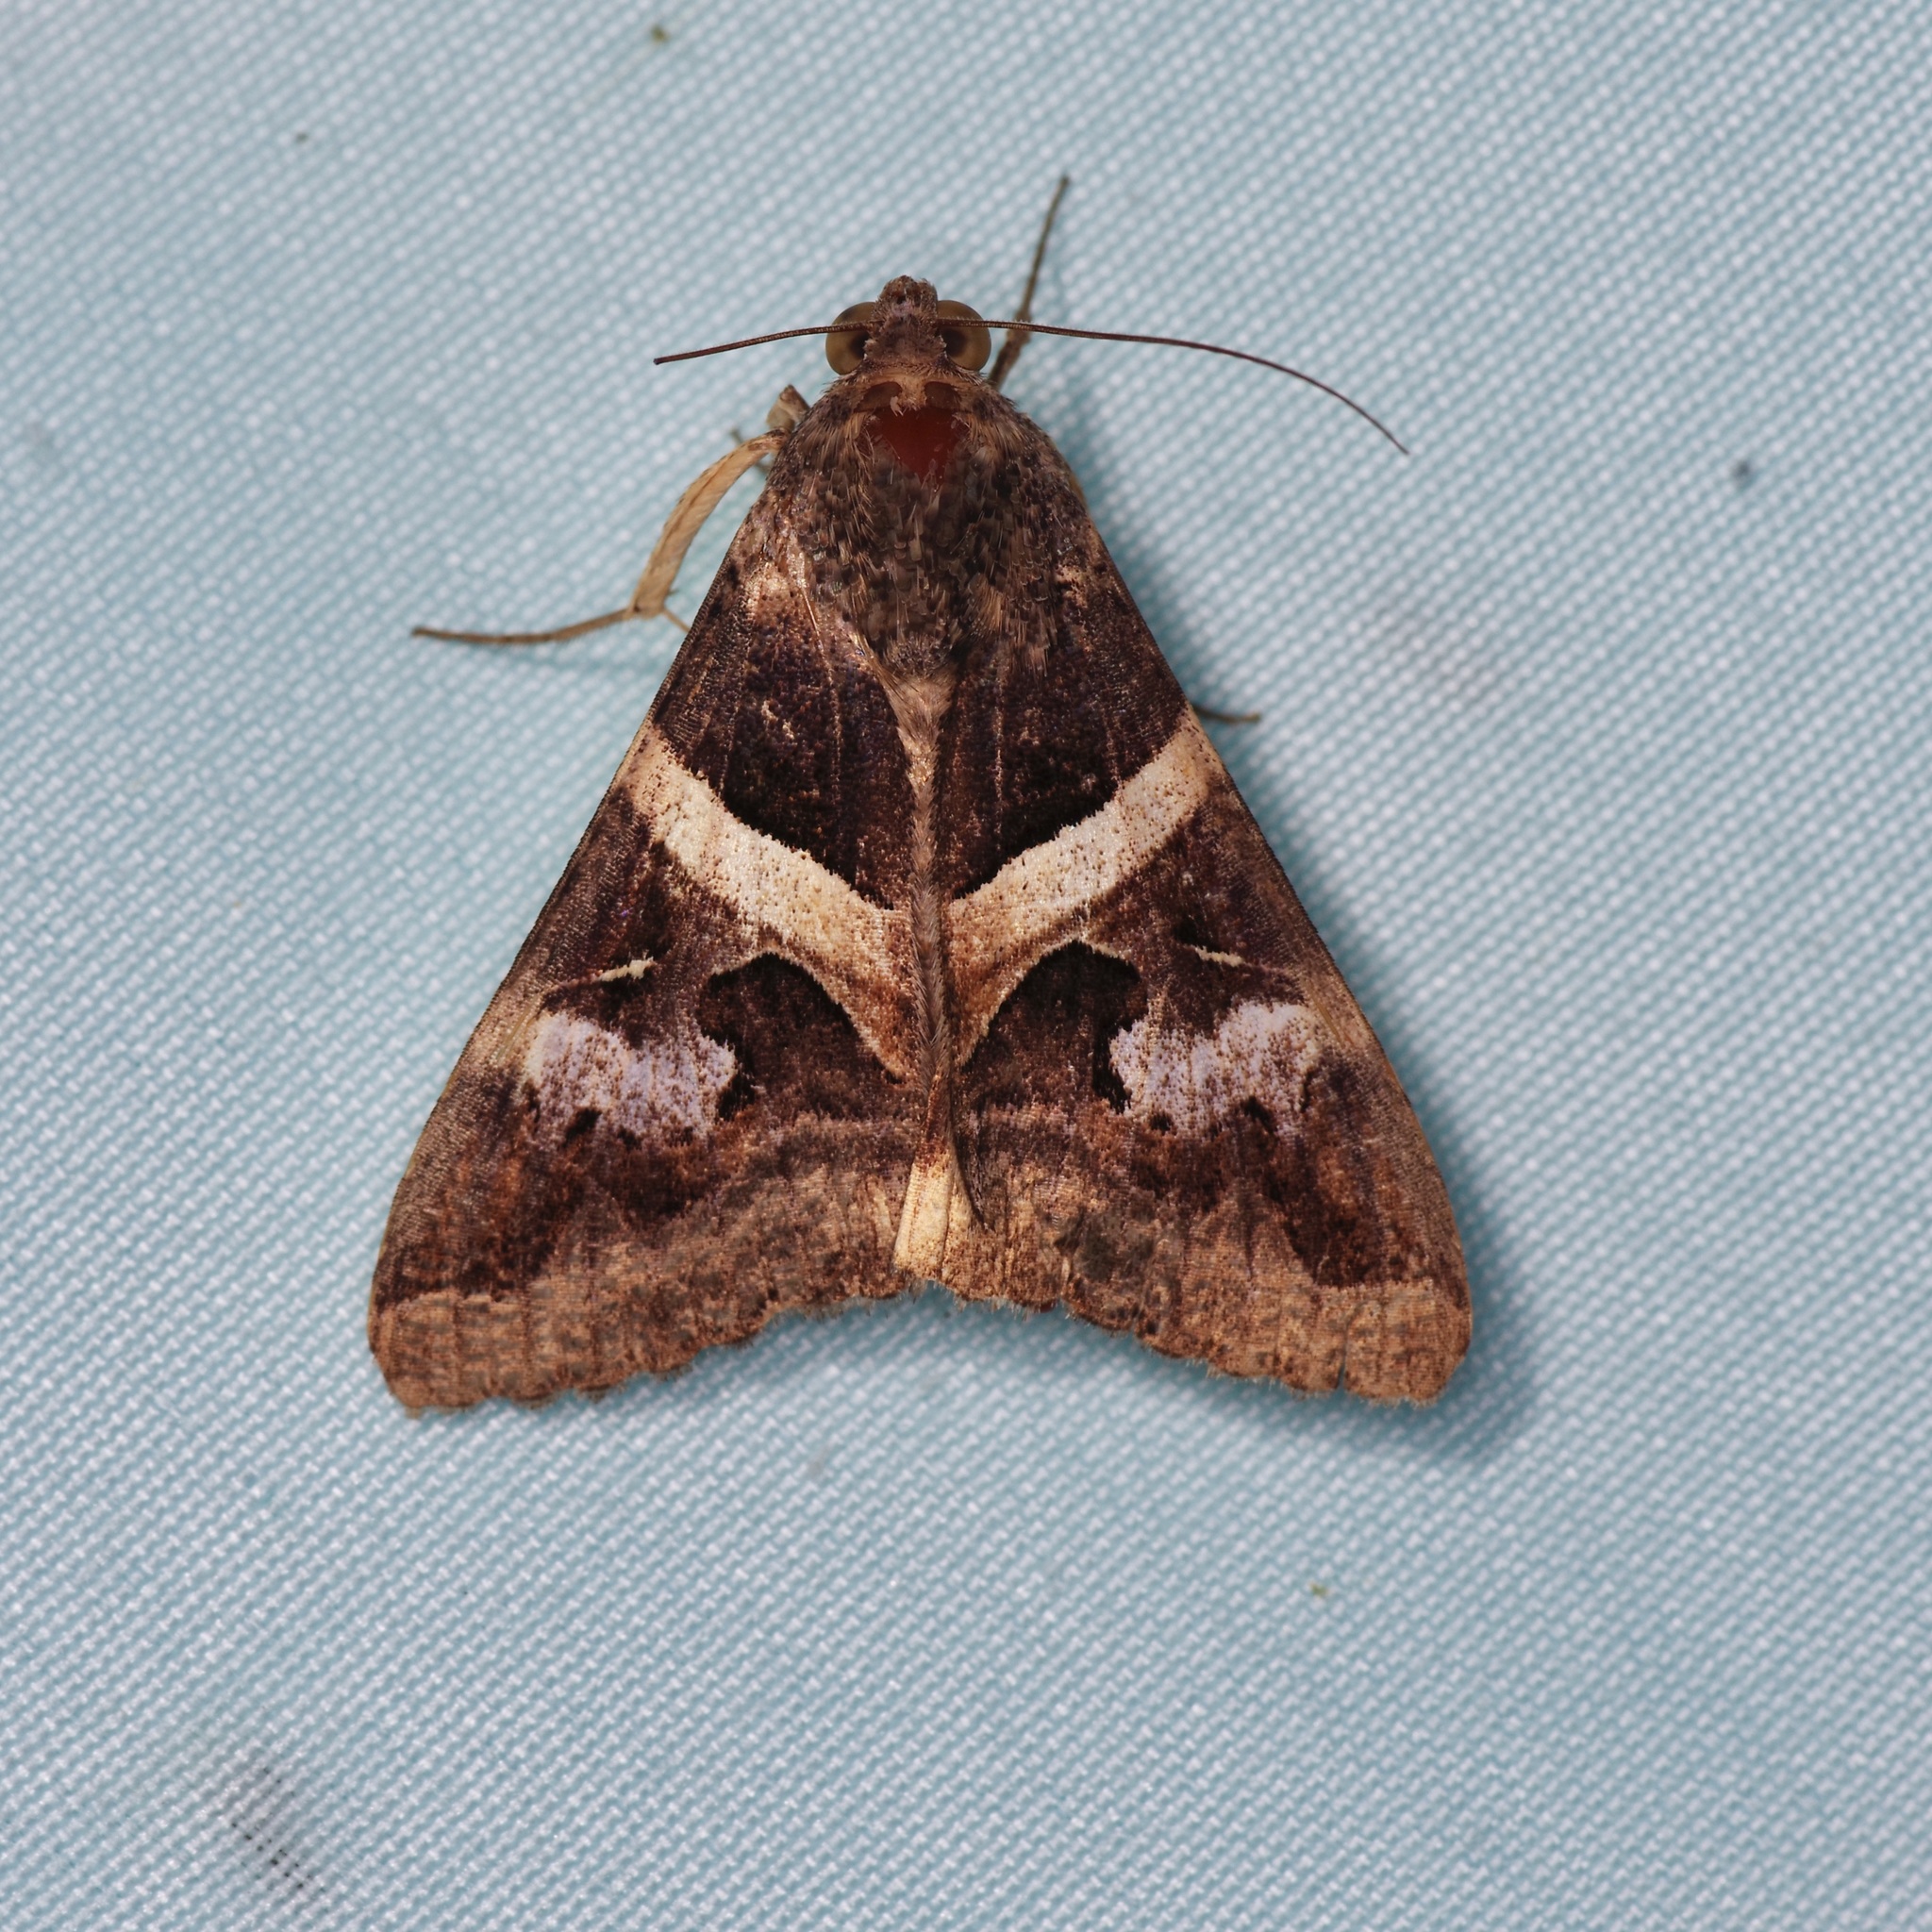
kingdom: Animalia
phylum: Arthropoda
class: Insecta
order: Lepidoptera
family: Erebidae
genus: Melipotis
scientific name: Melipotis indomita
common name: Moth
